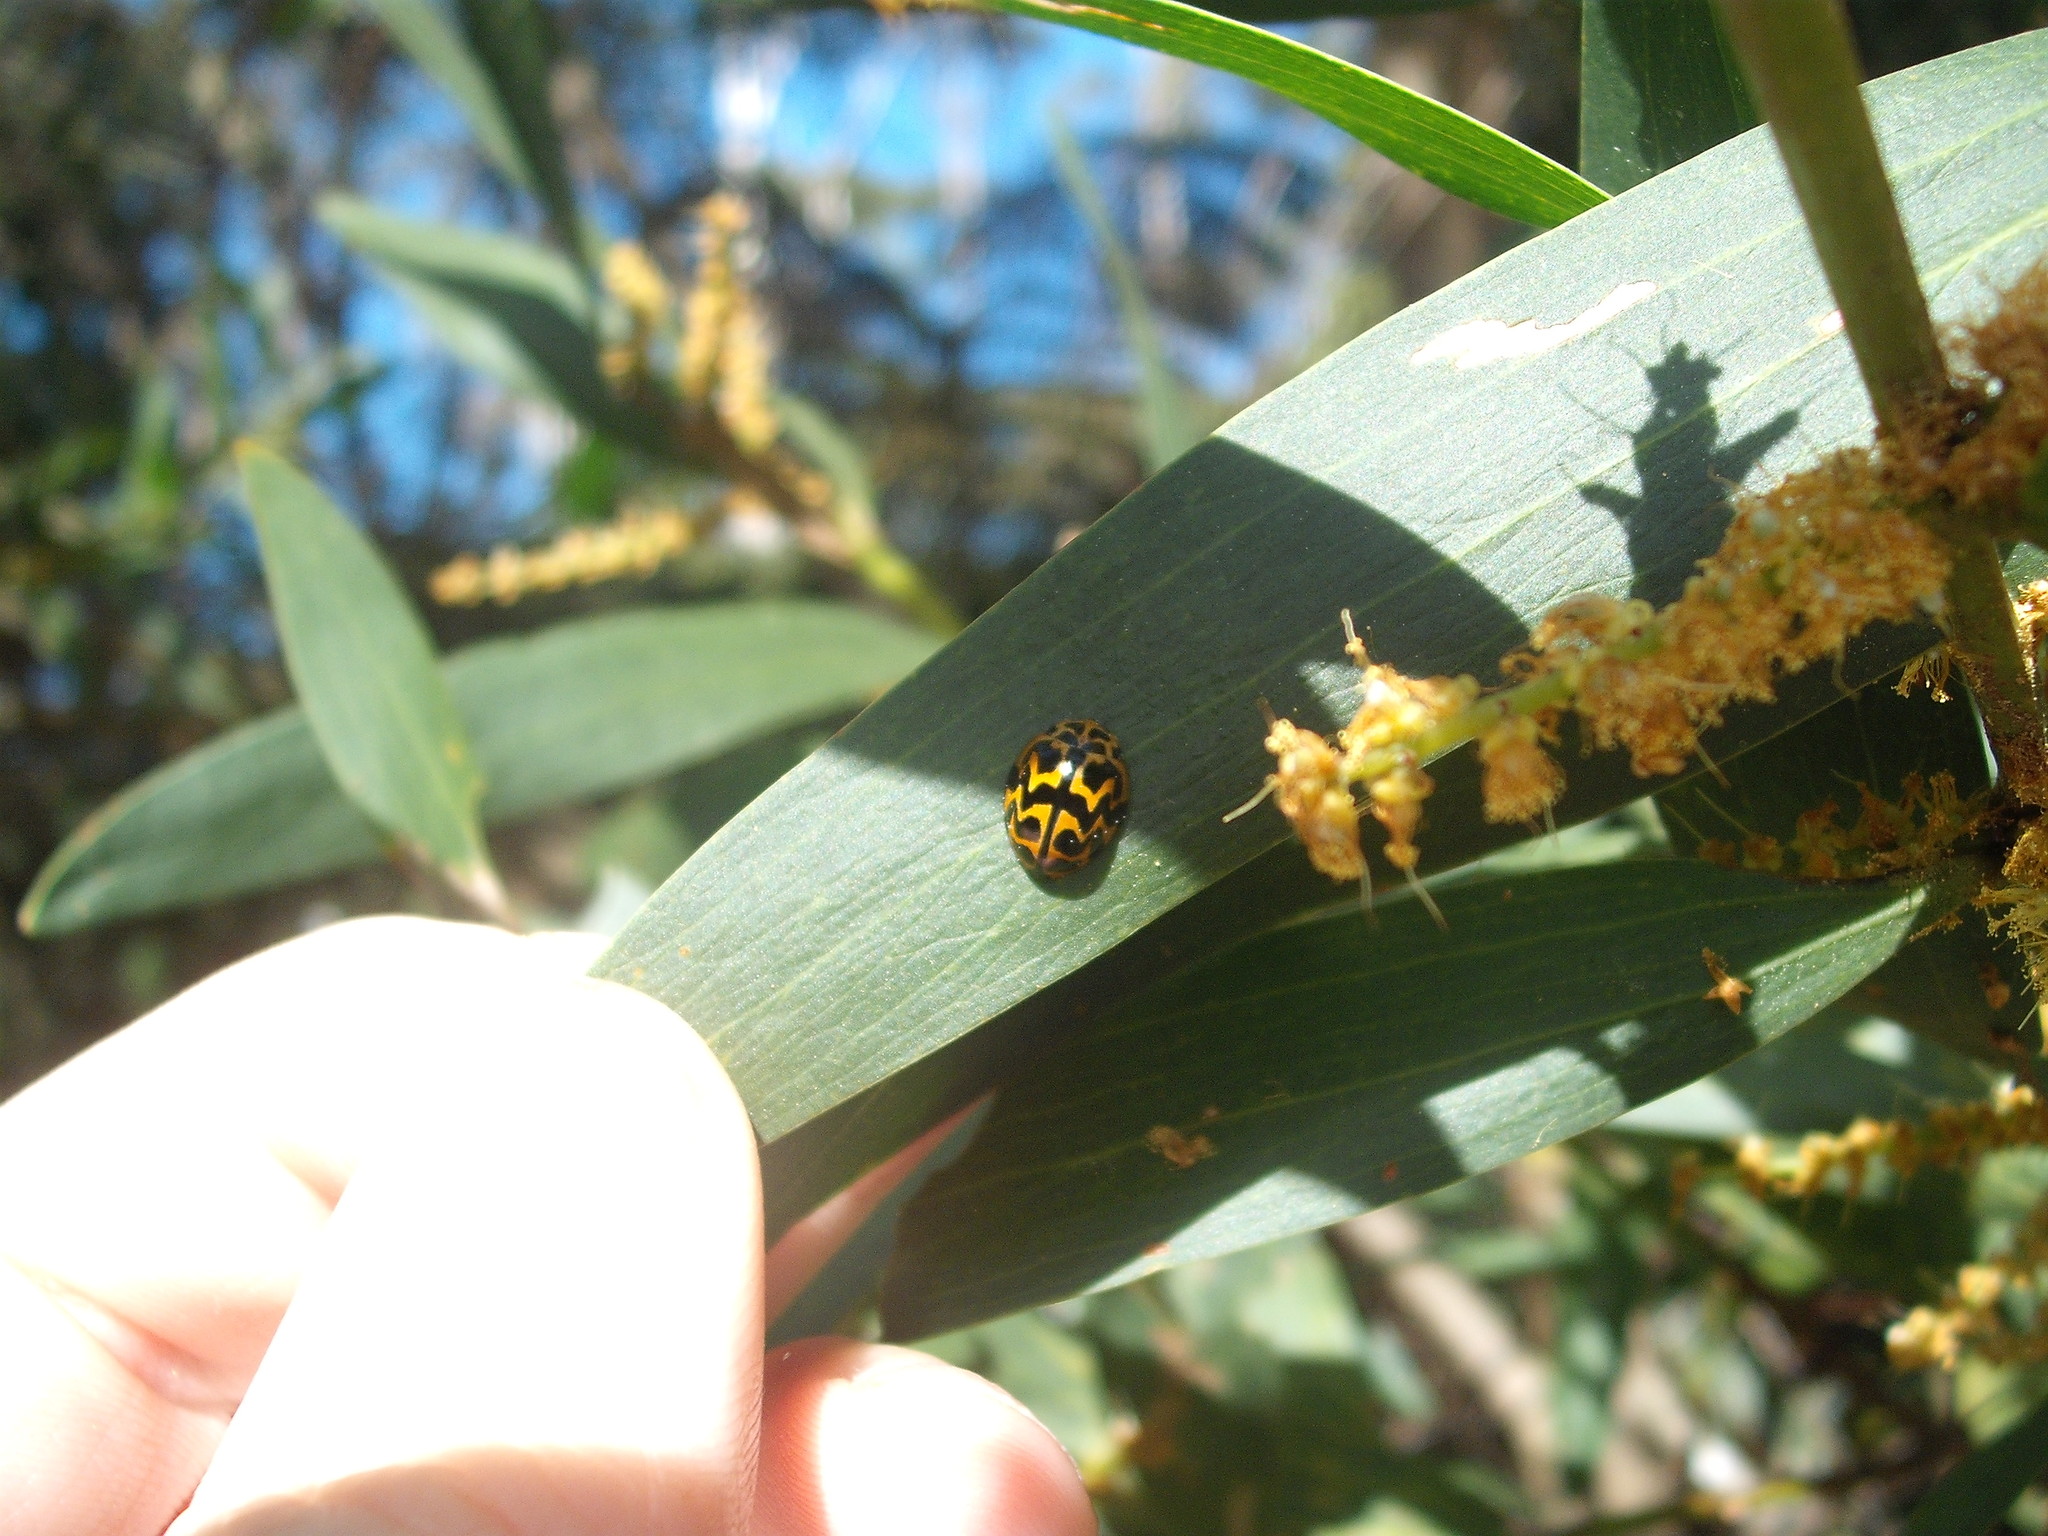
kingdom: Animalia
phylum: Arthropoda
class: Insecta
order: Coleoptera
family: Coccinellidae
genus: Cleobora
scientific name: Cleobora
